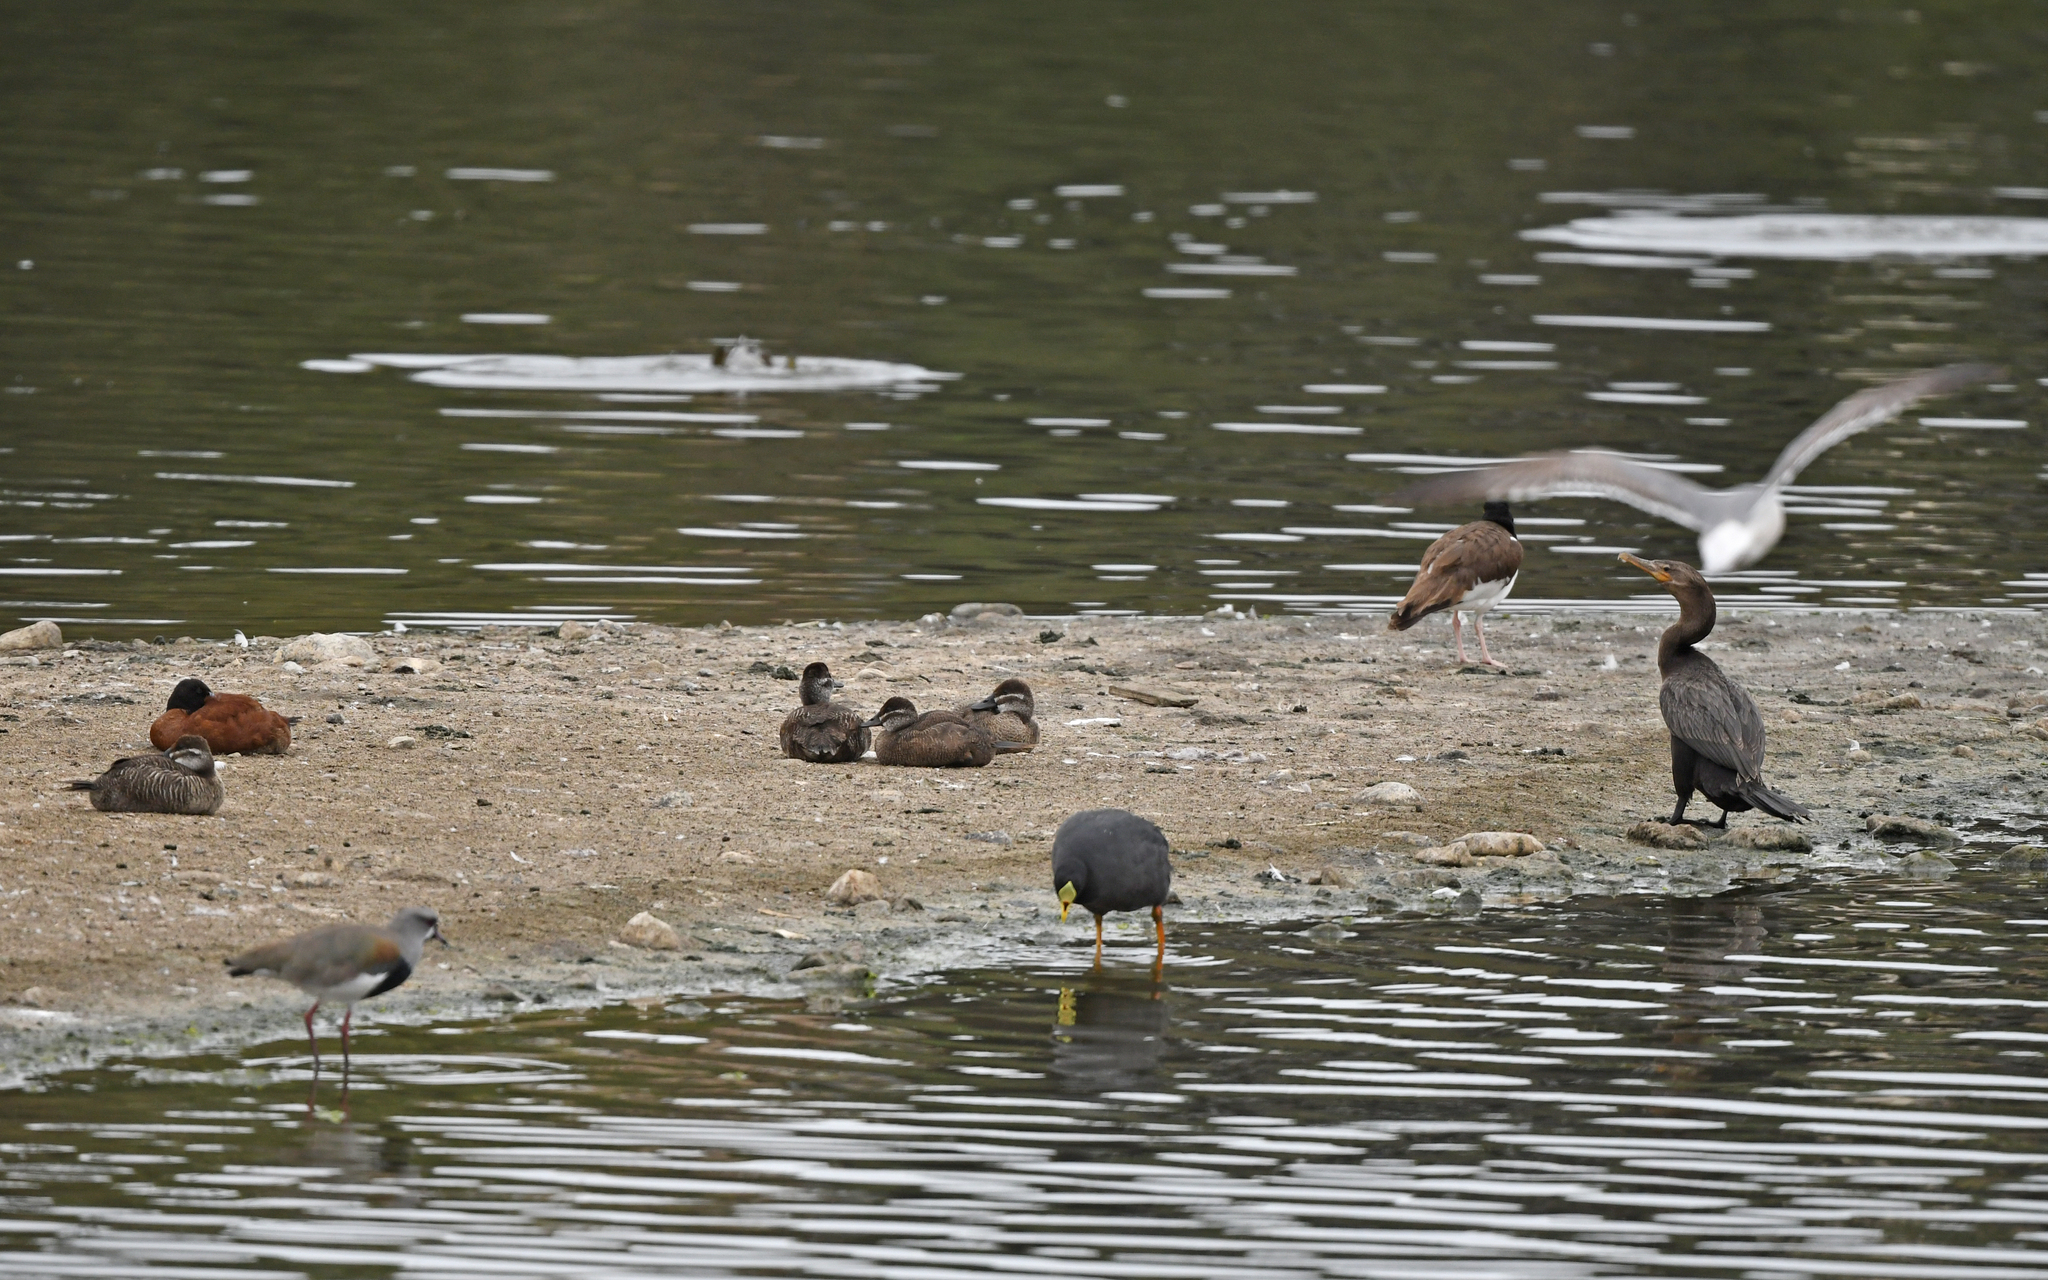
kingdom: Animalia
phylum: Chordata
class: Aves
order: Anseriformes
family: Anatidae
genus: Oxyura
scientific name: Oxyura vittata
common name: Lake duck
